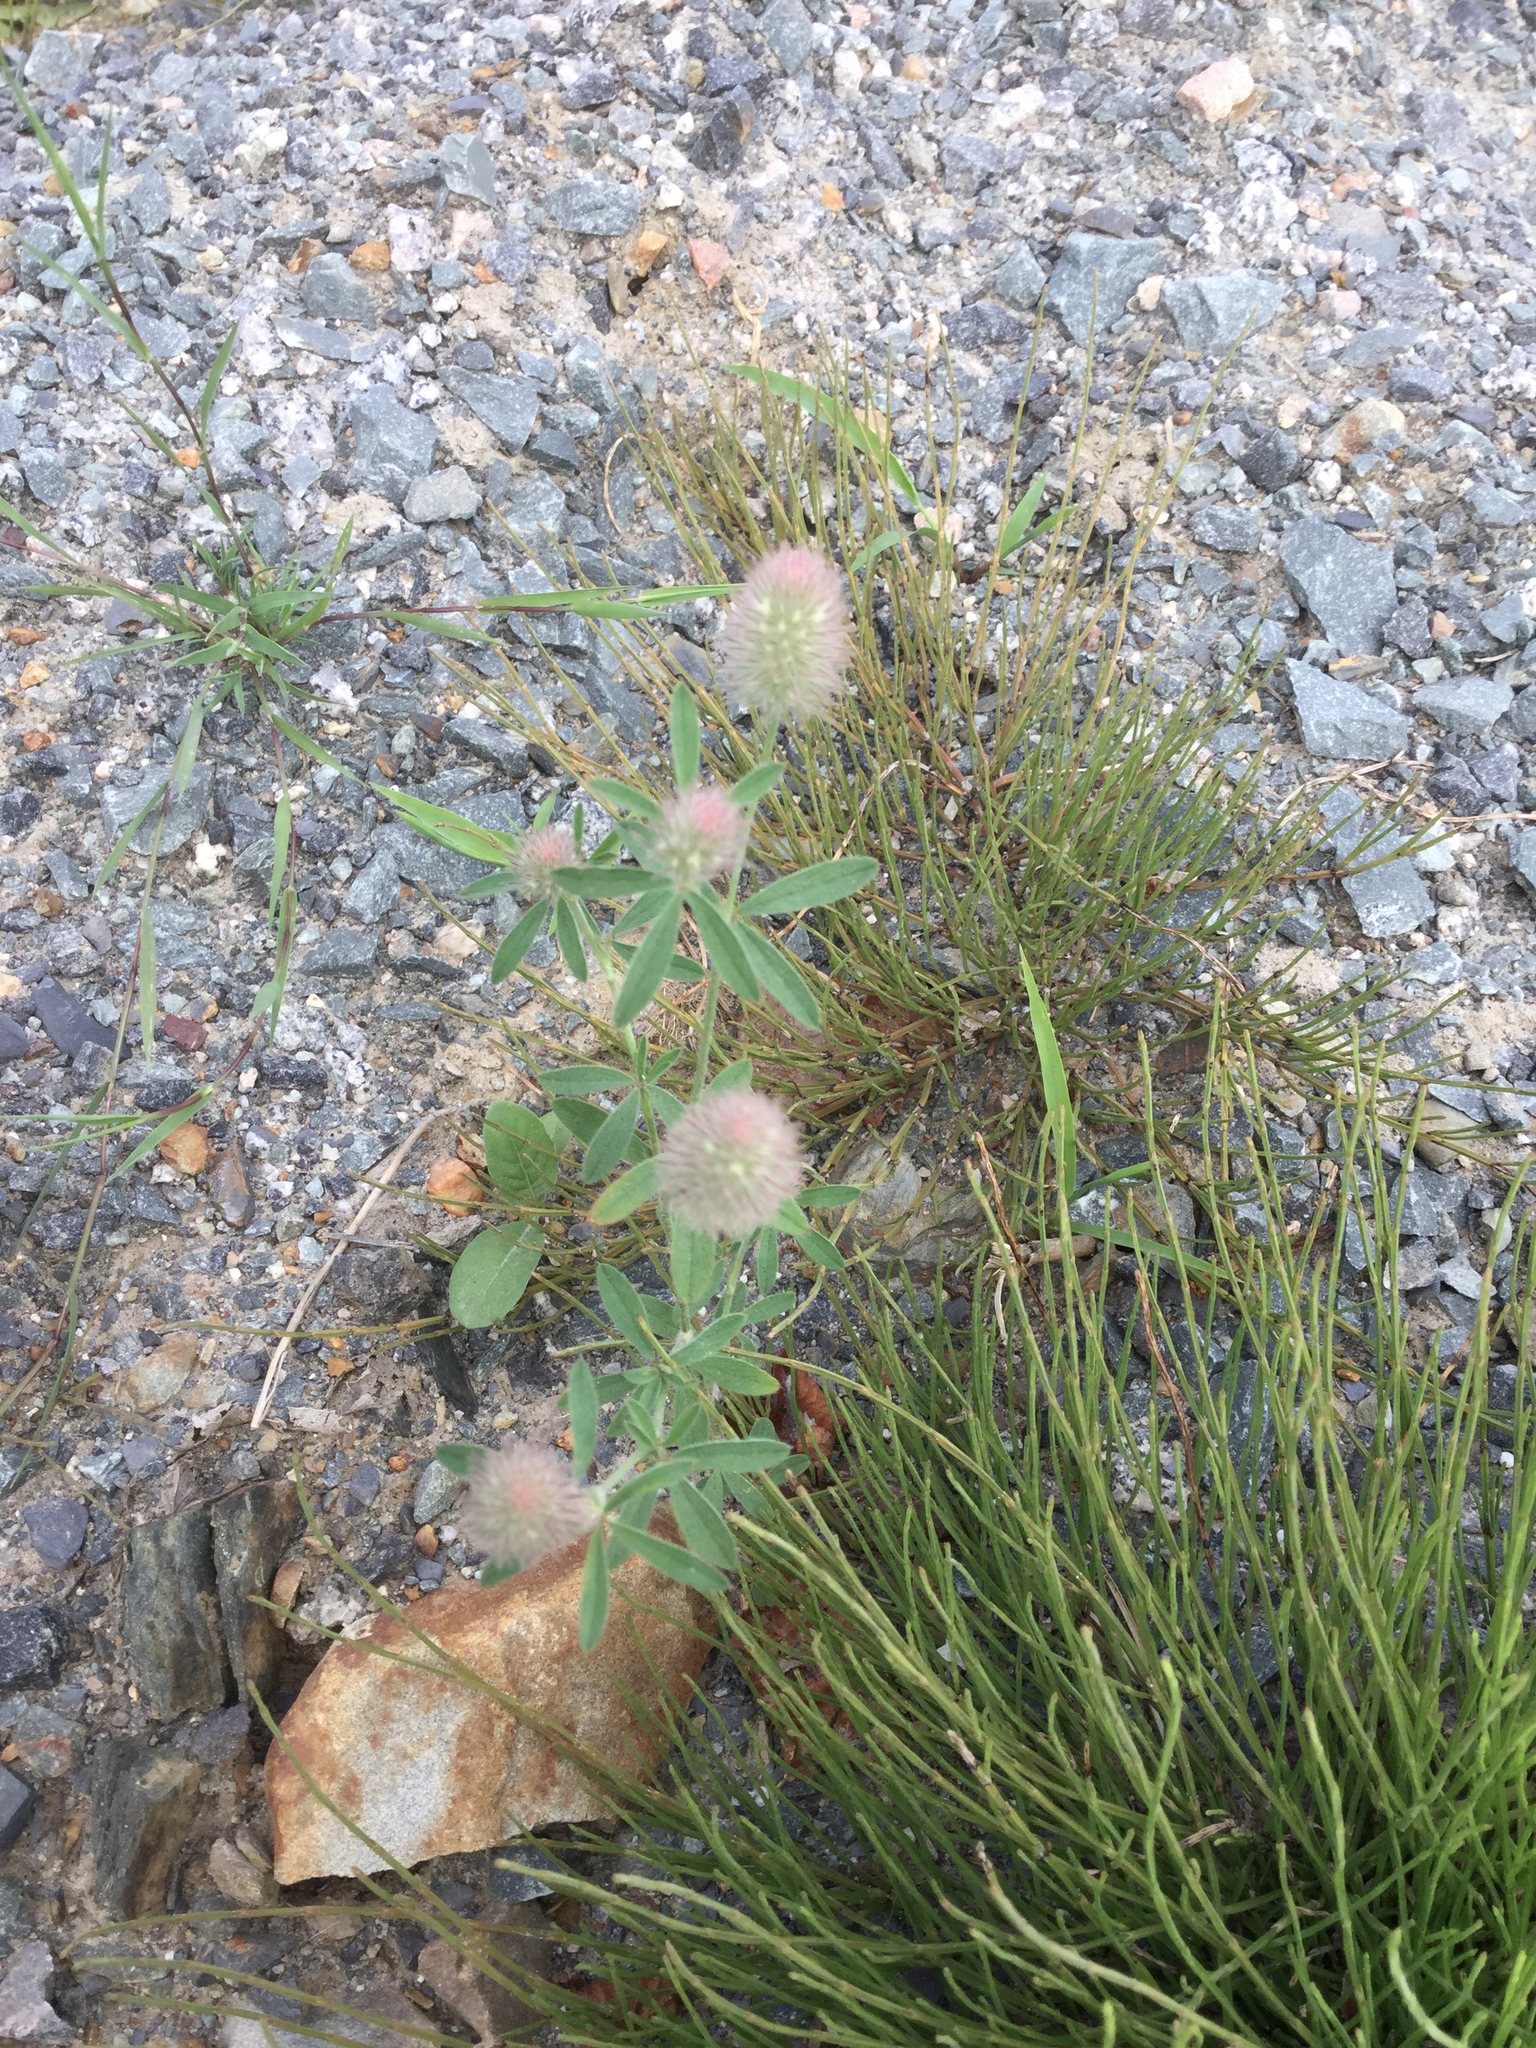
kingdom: Plantae
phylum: Tracheophyta
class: Magnoliopsida
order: Fabales
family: Fabaceae
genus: Trifolium
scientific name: Trifolium arvense
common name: Hare's-foot clover
